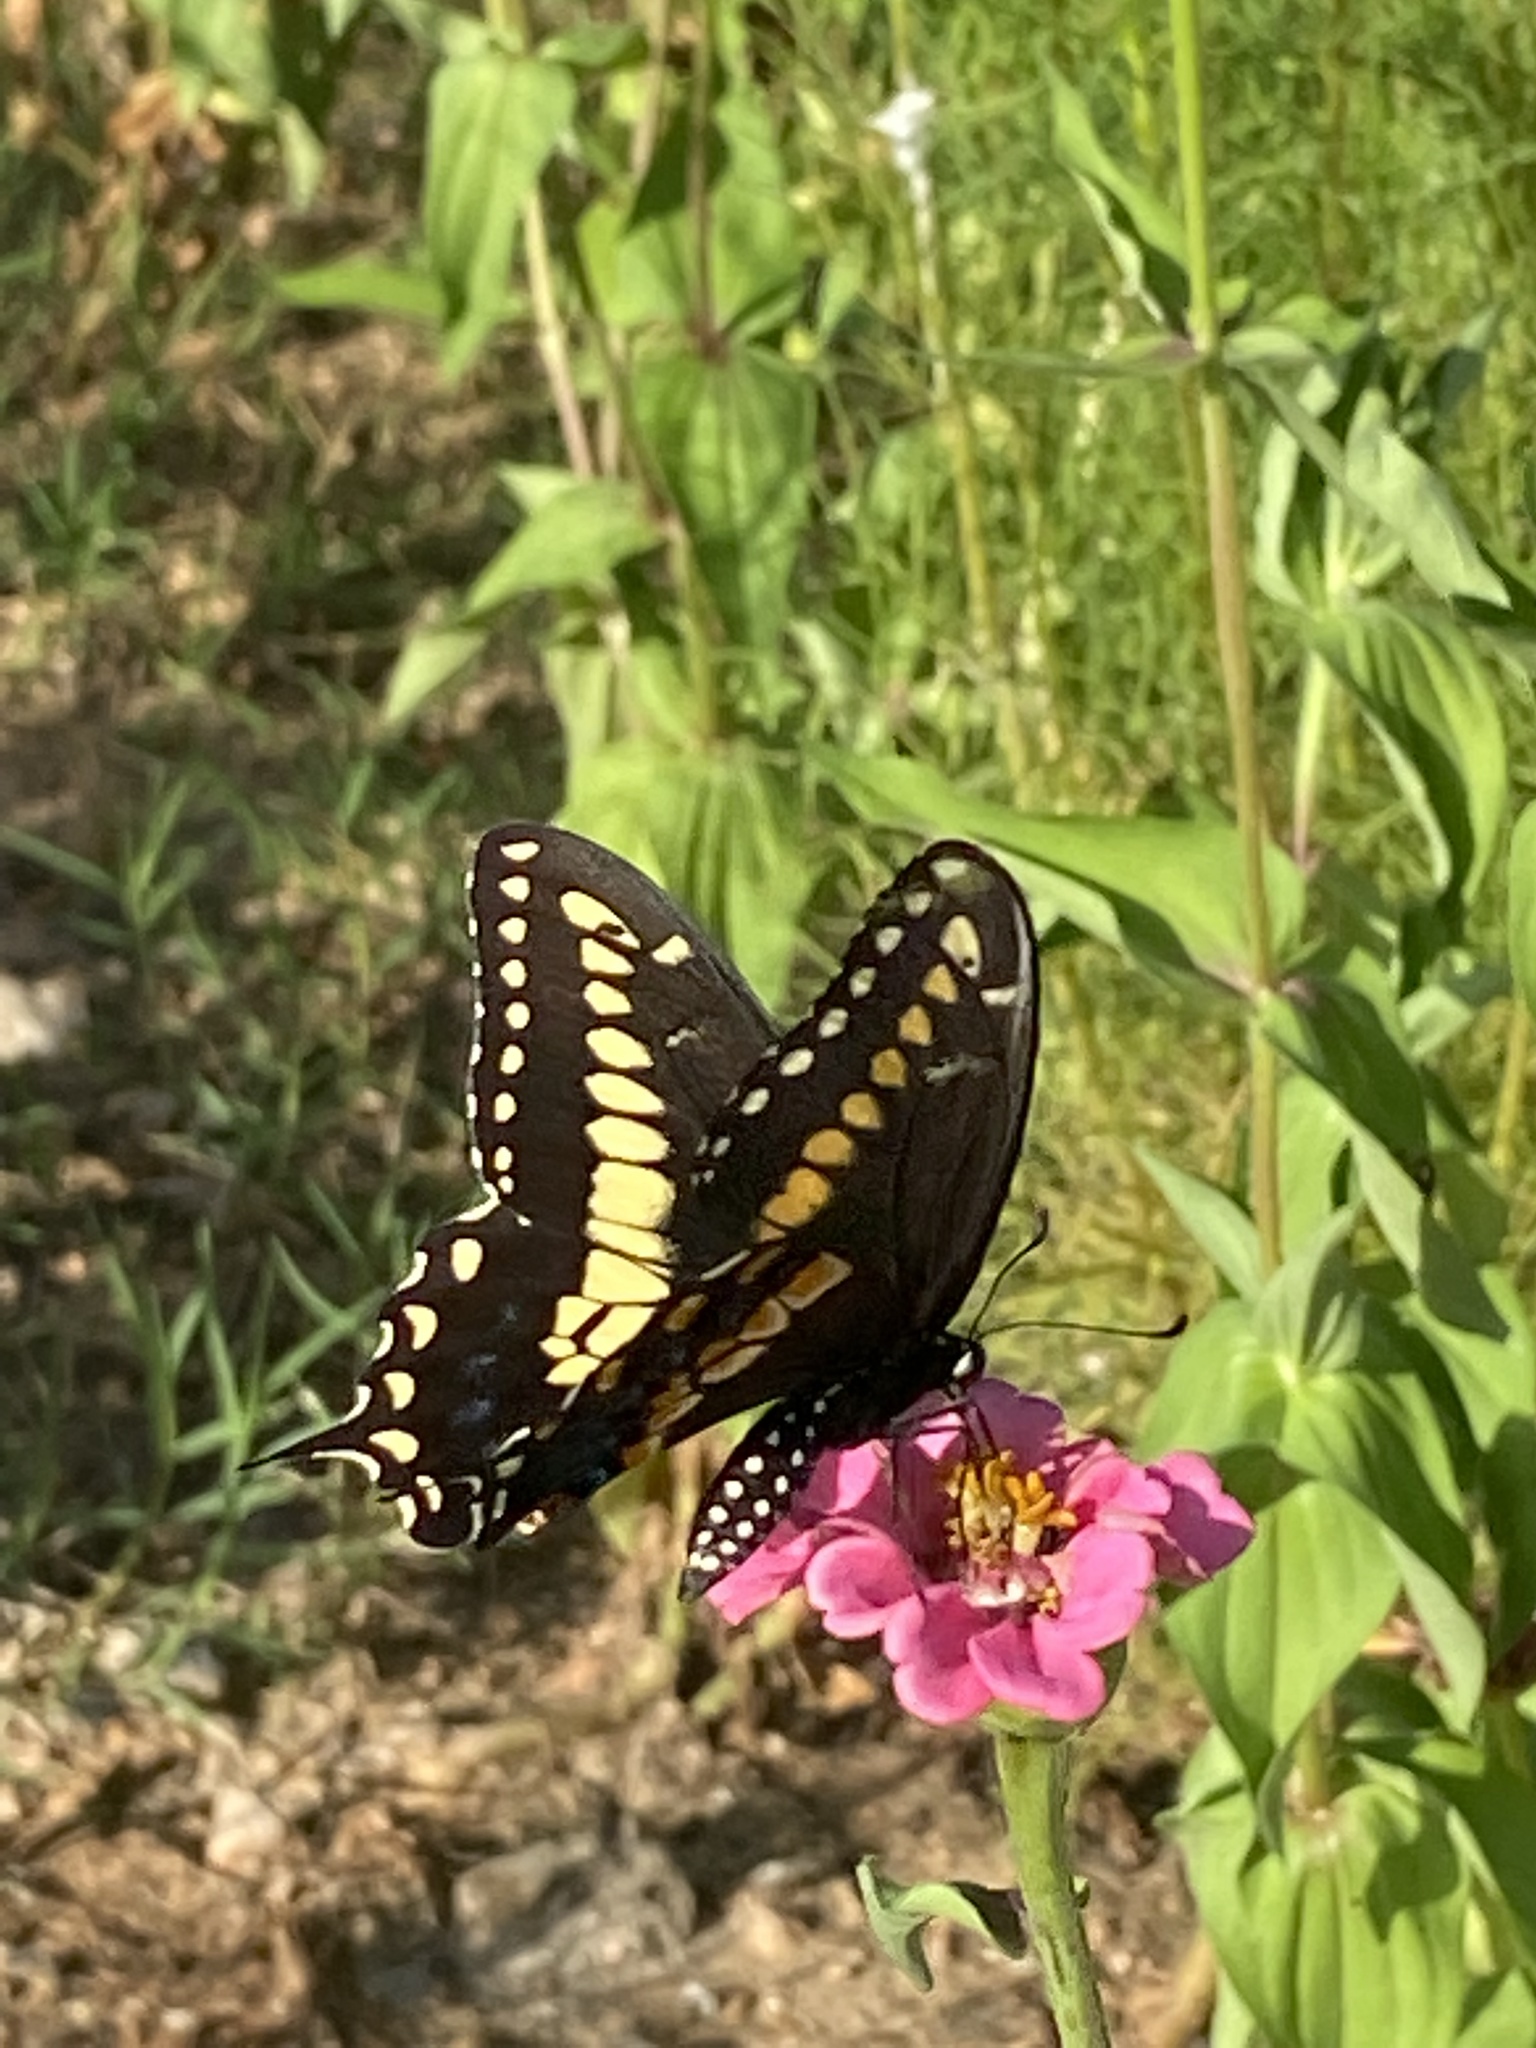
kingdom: Animalia
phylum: Arthropoda
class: Insecta
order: Lepidoptera
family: Papilionidae
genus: Papilio
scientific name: Papilio polyxenes
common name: Black swallowtail
